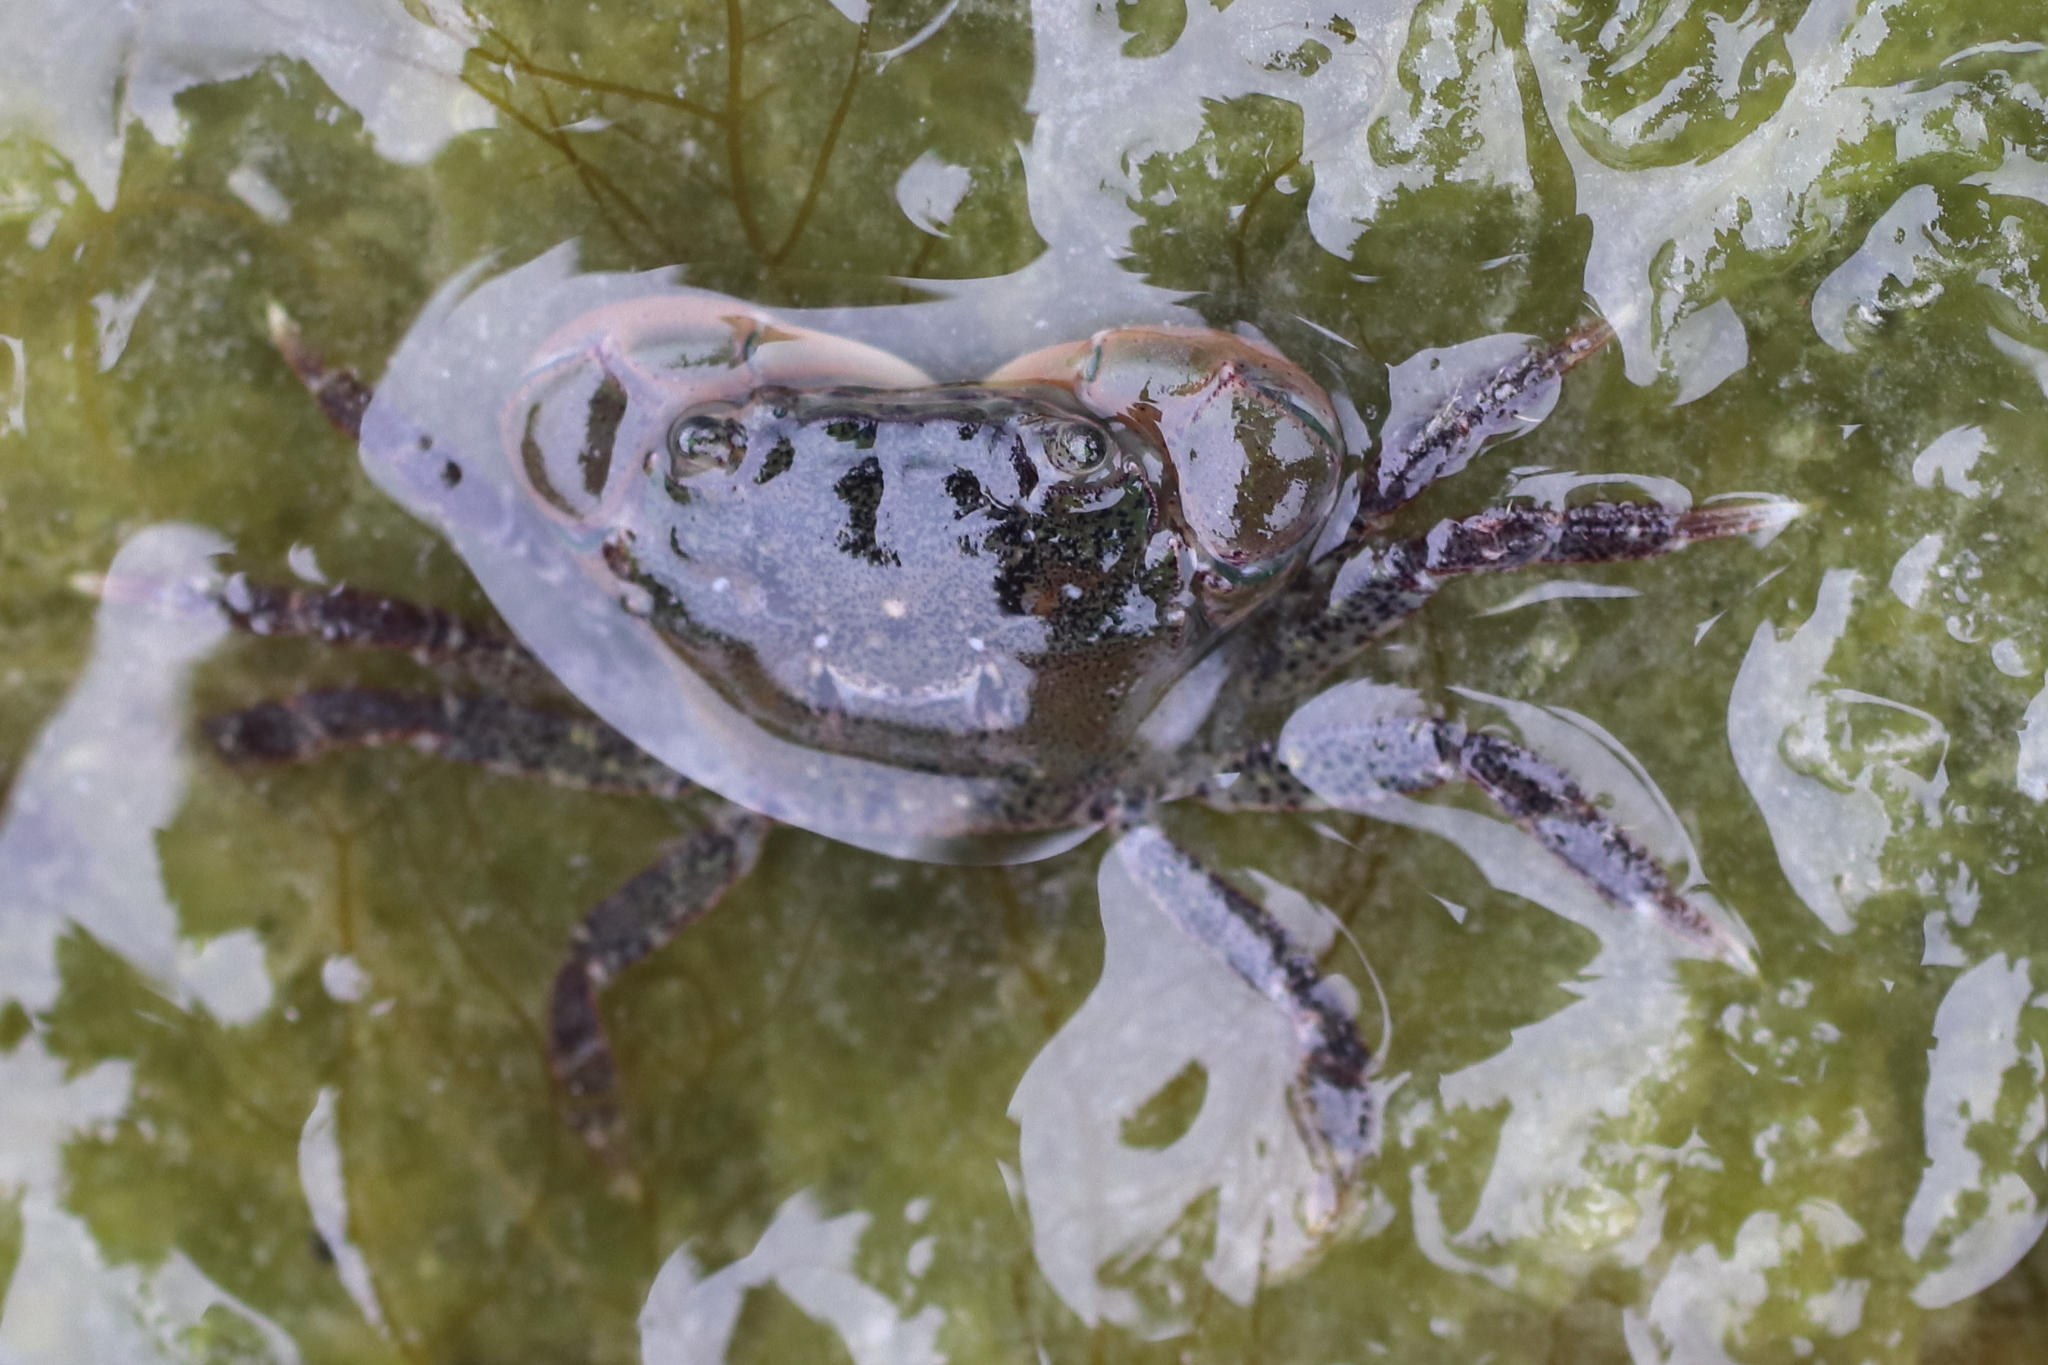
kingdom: Animalia
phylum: Arthropoda
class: Malacostraca
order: Decapoda
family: Varunidae
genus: Hemigrapsus
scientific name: Hemigrapsus oregonensis
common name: Yellow shore crab
